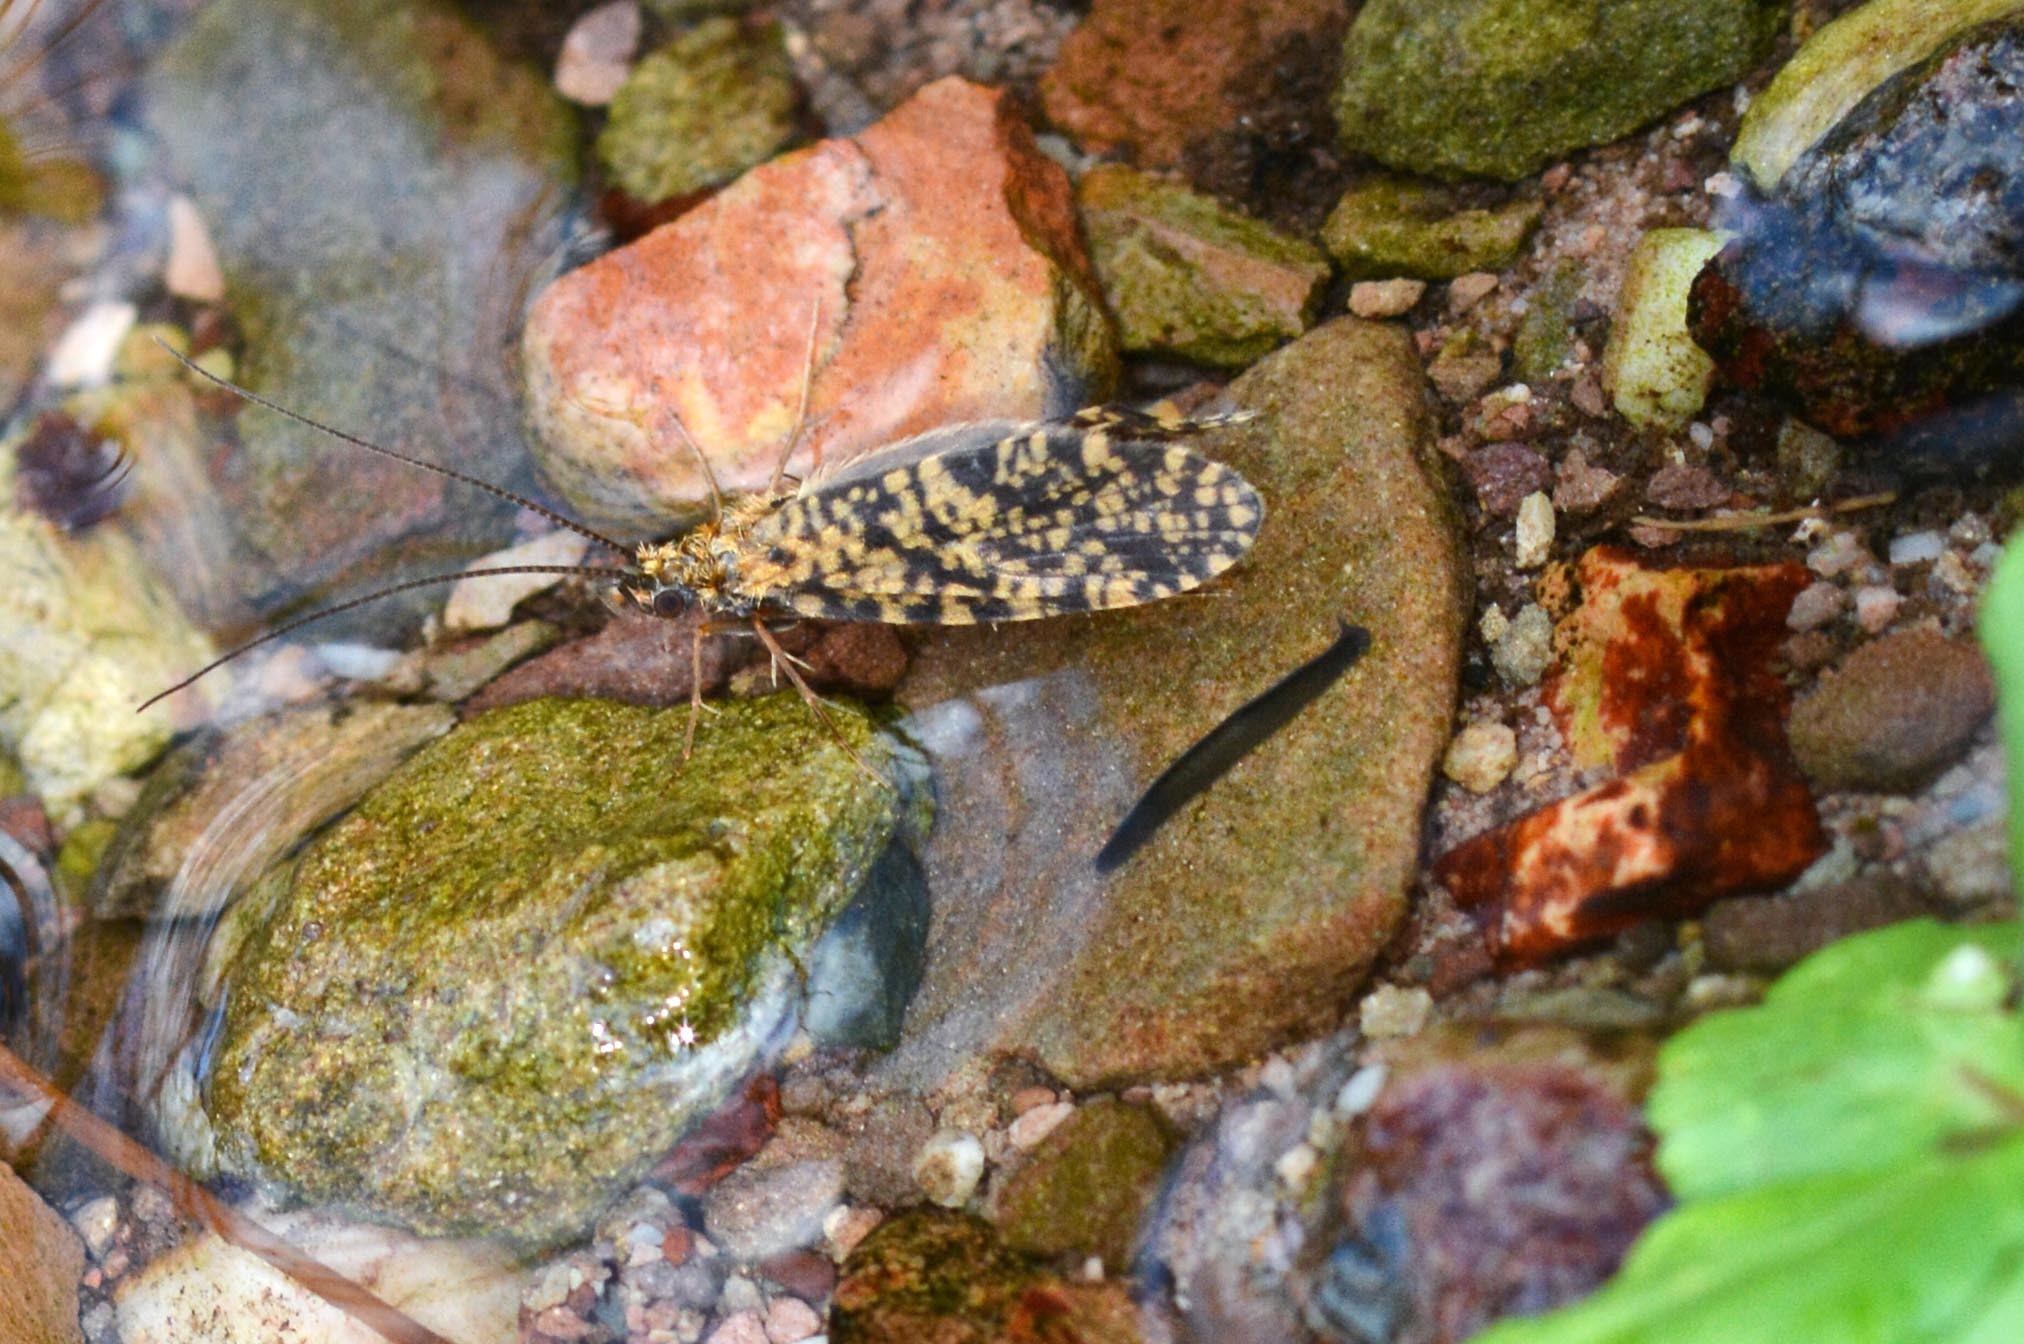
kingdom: Animalia
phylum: Platyhelminthes
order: Tricladida
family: Planariidae
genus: Polycelis
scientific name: Polycelis felina
